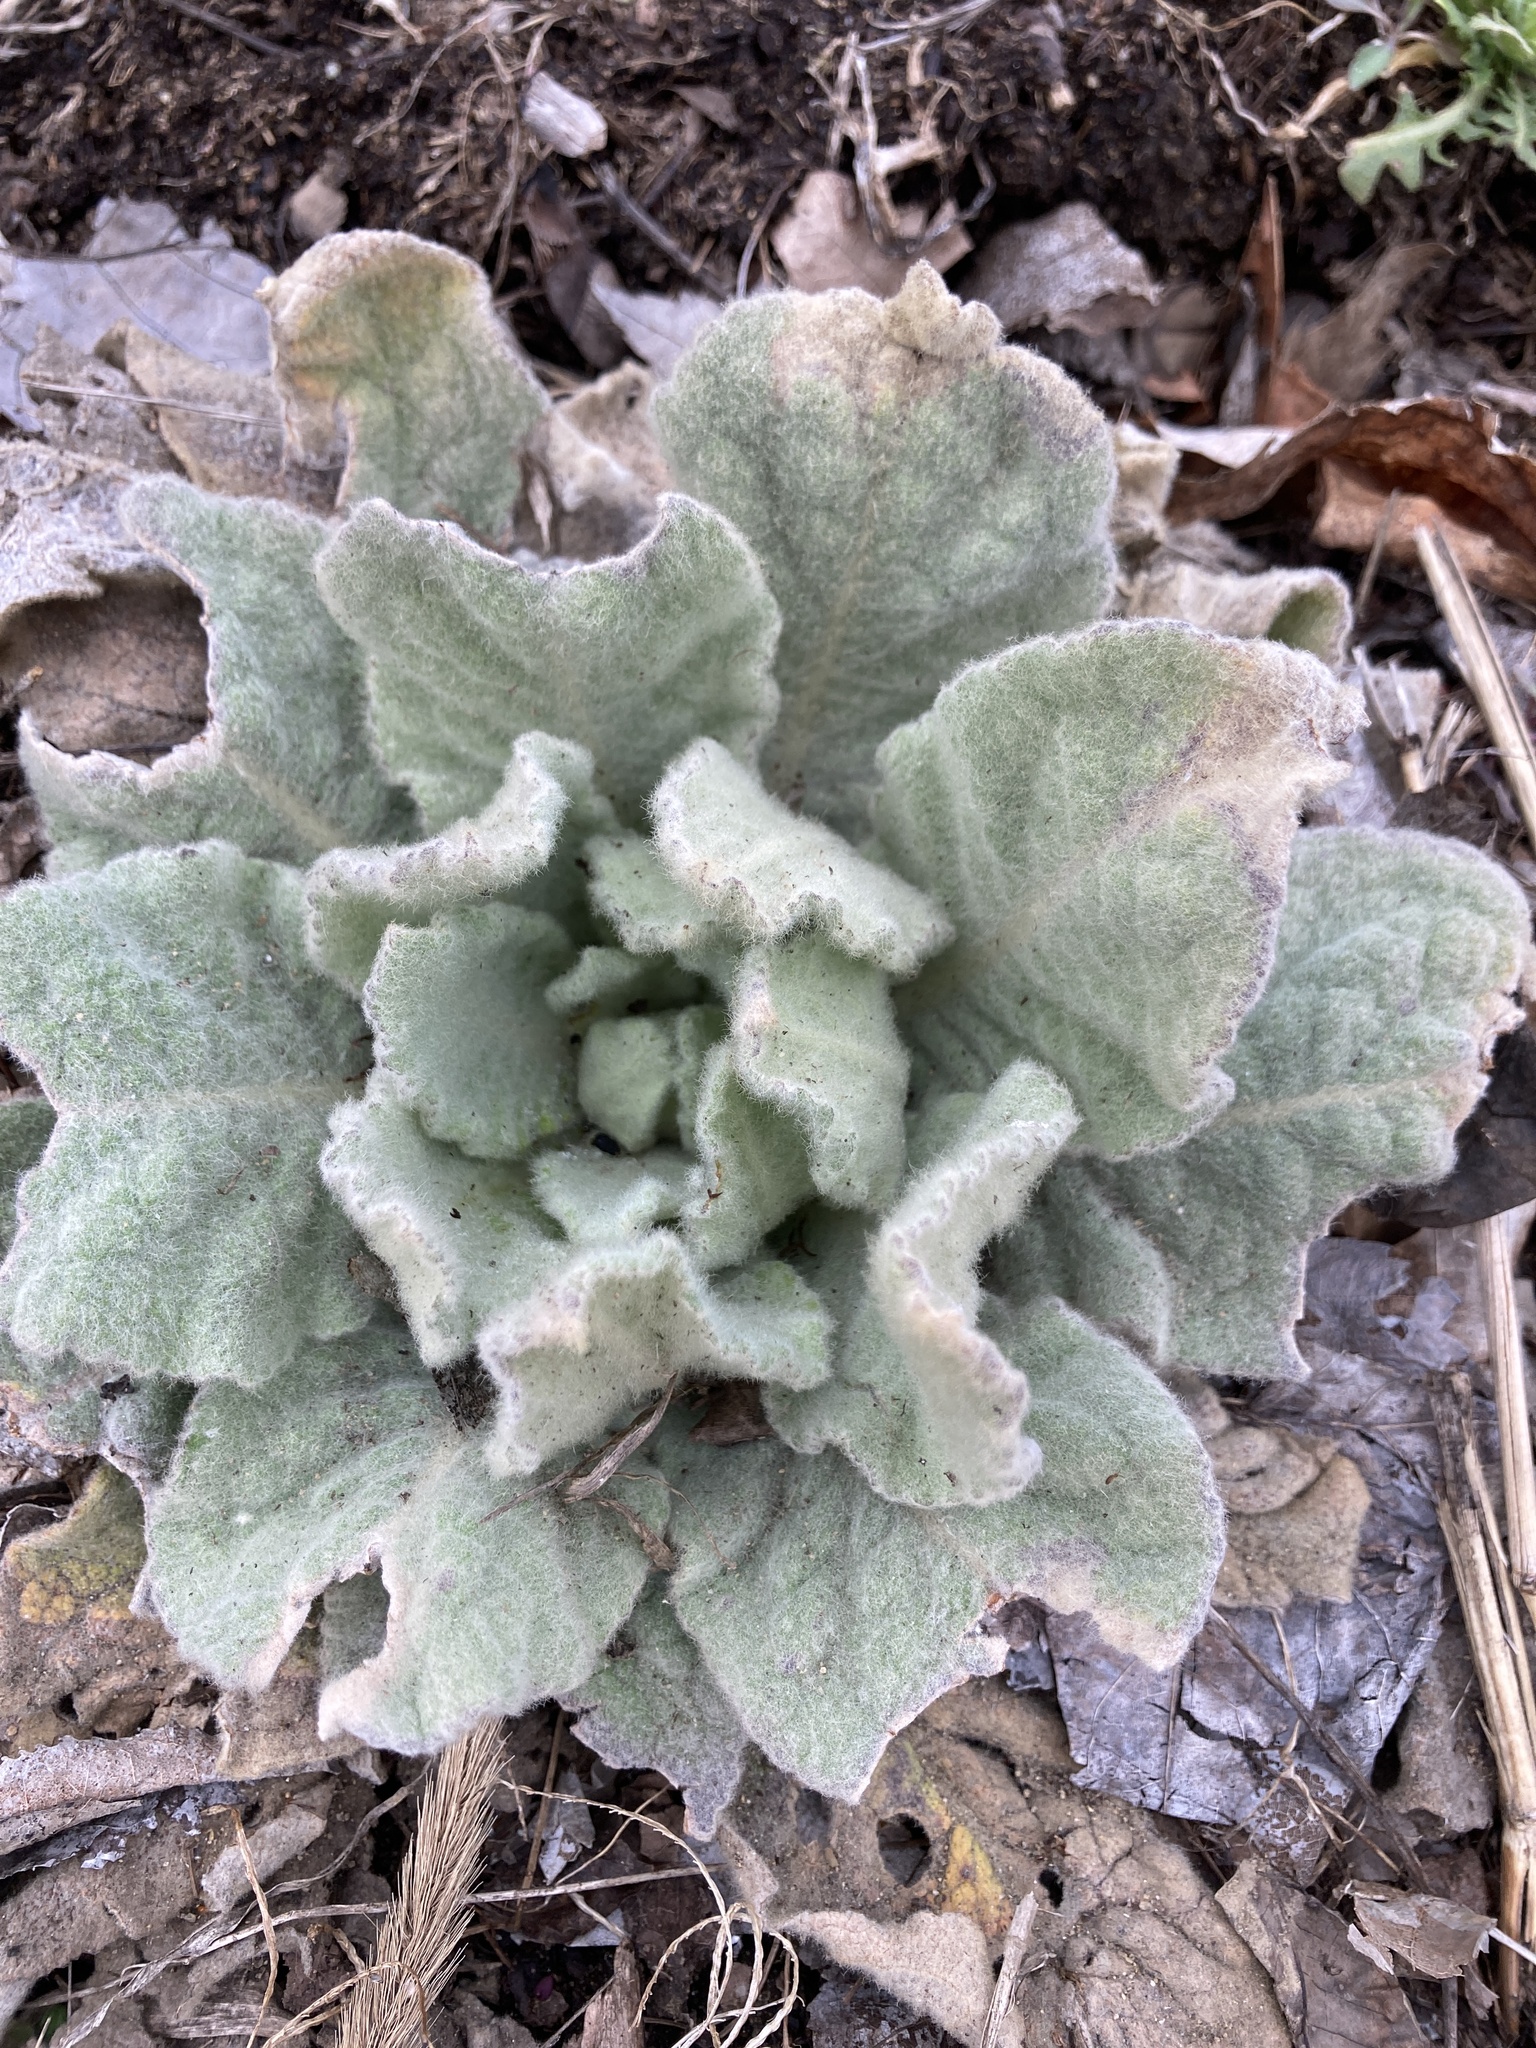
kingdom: Plantae
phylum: Tracheophyta
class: Magnoliopsida
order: Lamiales
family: Scrophulariaceae
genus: Verbascum
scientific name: Verbascum thapsus
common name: Common mullein
